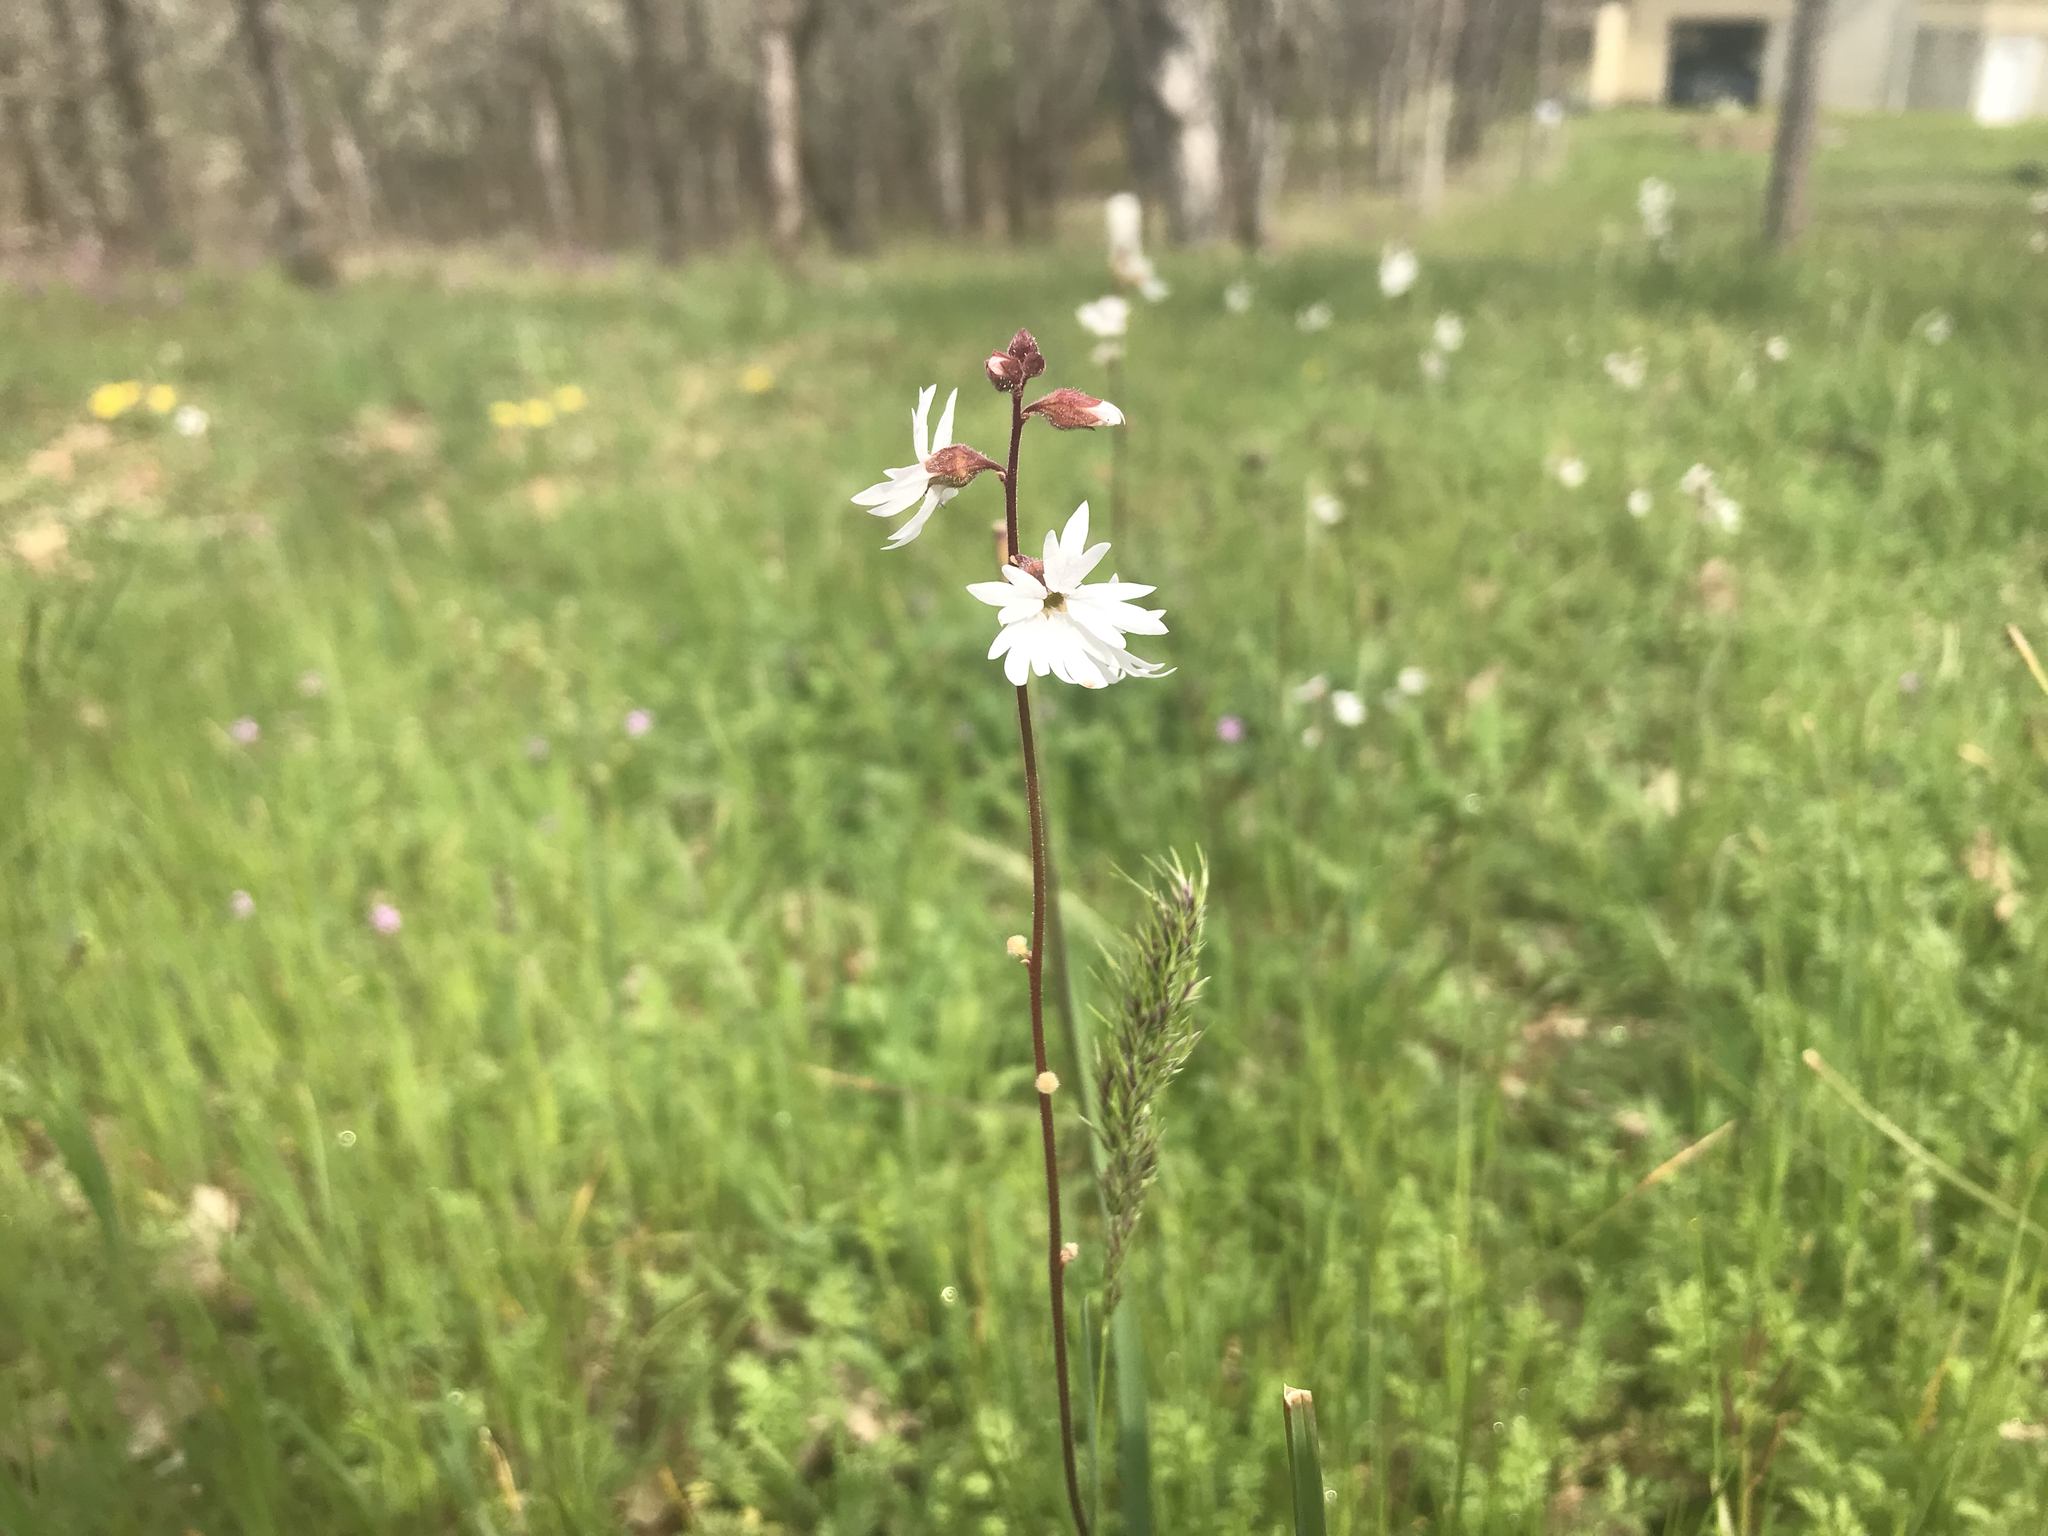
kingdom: Plantae
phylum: Tracheophyta
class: Magnoliopsida
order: Saxifragales
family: Saxifragaceae
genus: Lithophragma
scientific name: Lithophragma parviflorum
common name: Small-flowered fringe-cup
